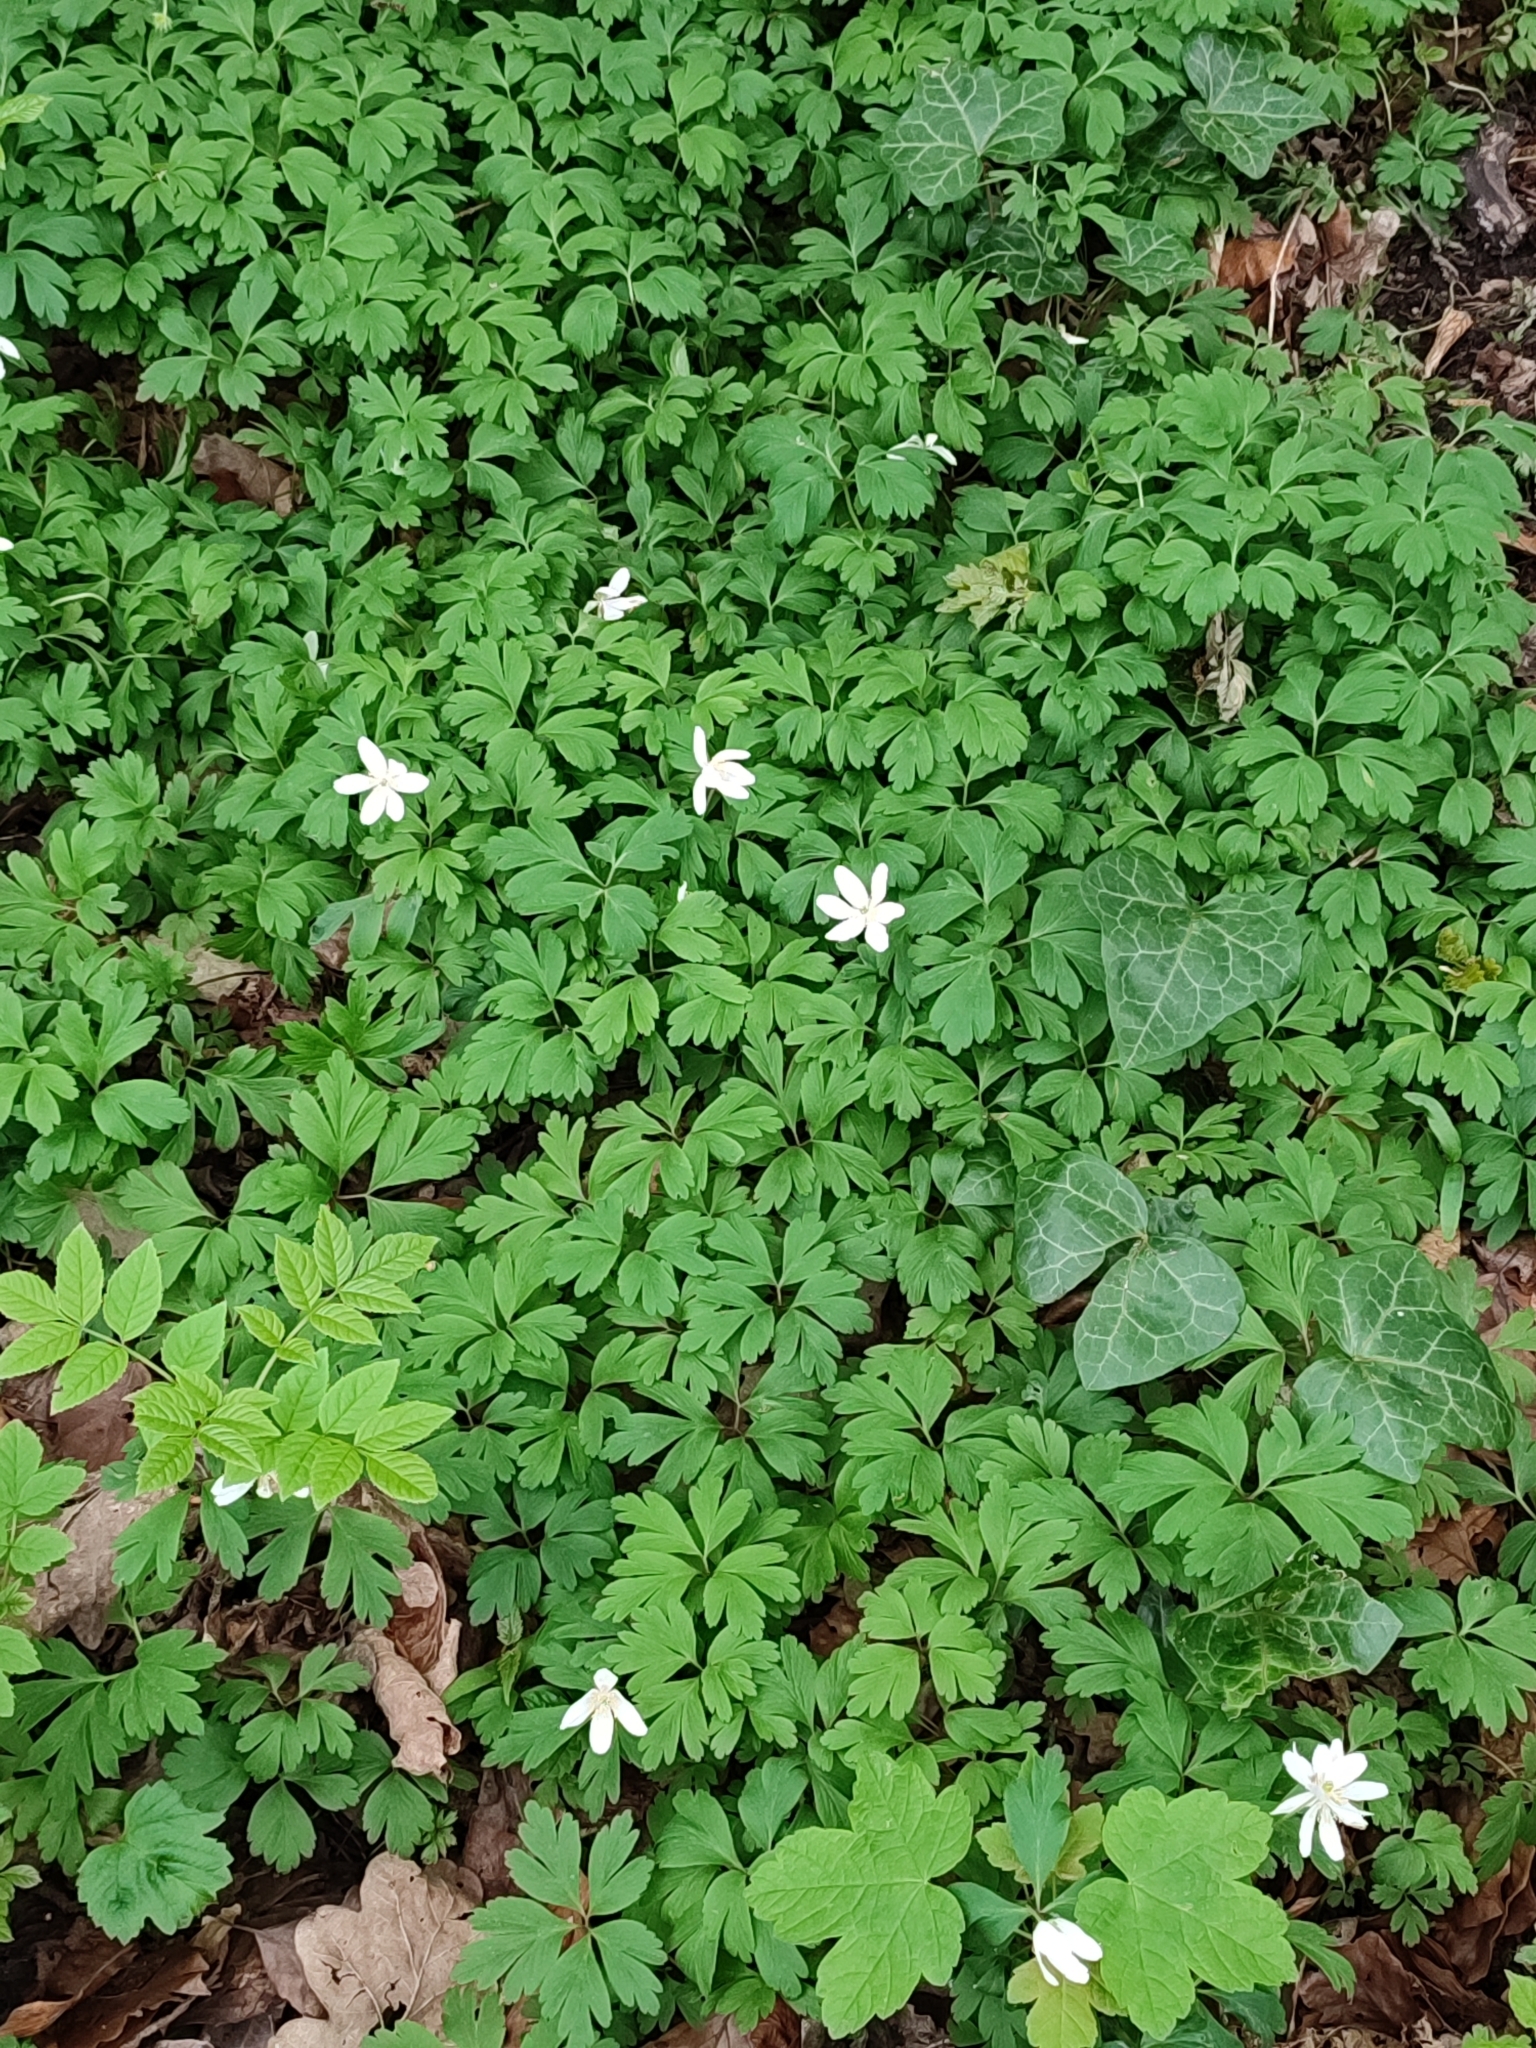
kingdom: Plantae
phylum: Tracheophyta
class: Magnoliopsida
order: Ranunculales
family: Ranunculaceae
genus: Anemone
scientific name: Anemone nemorosa
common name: Wood anemone
